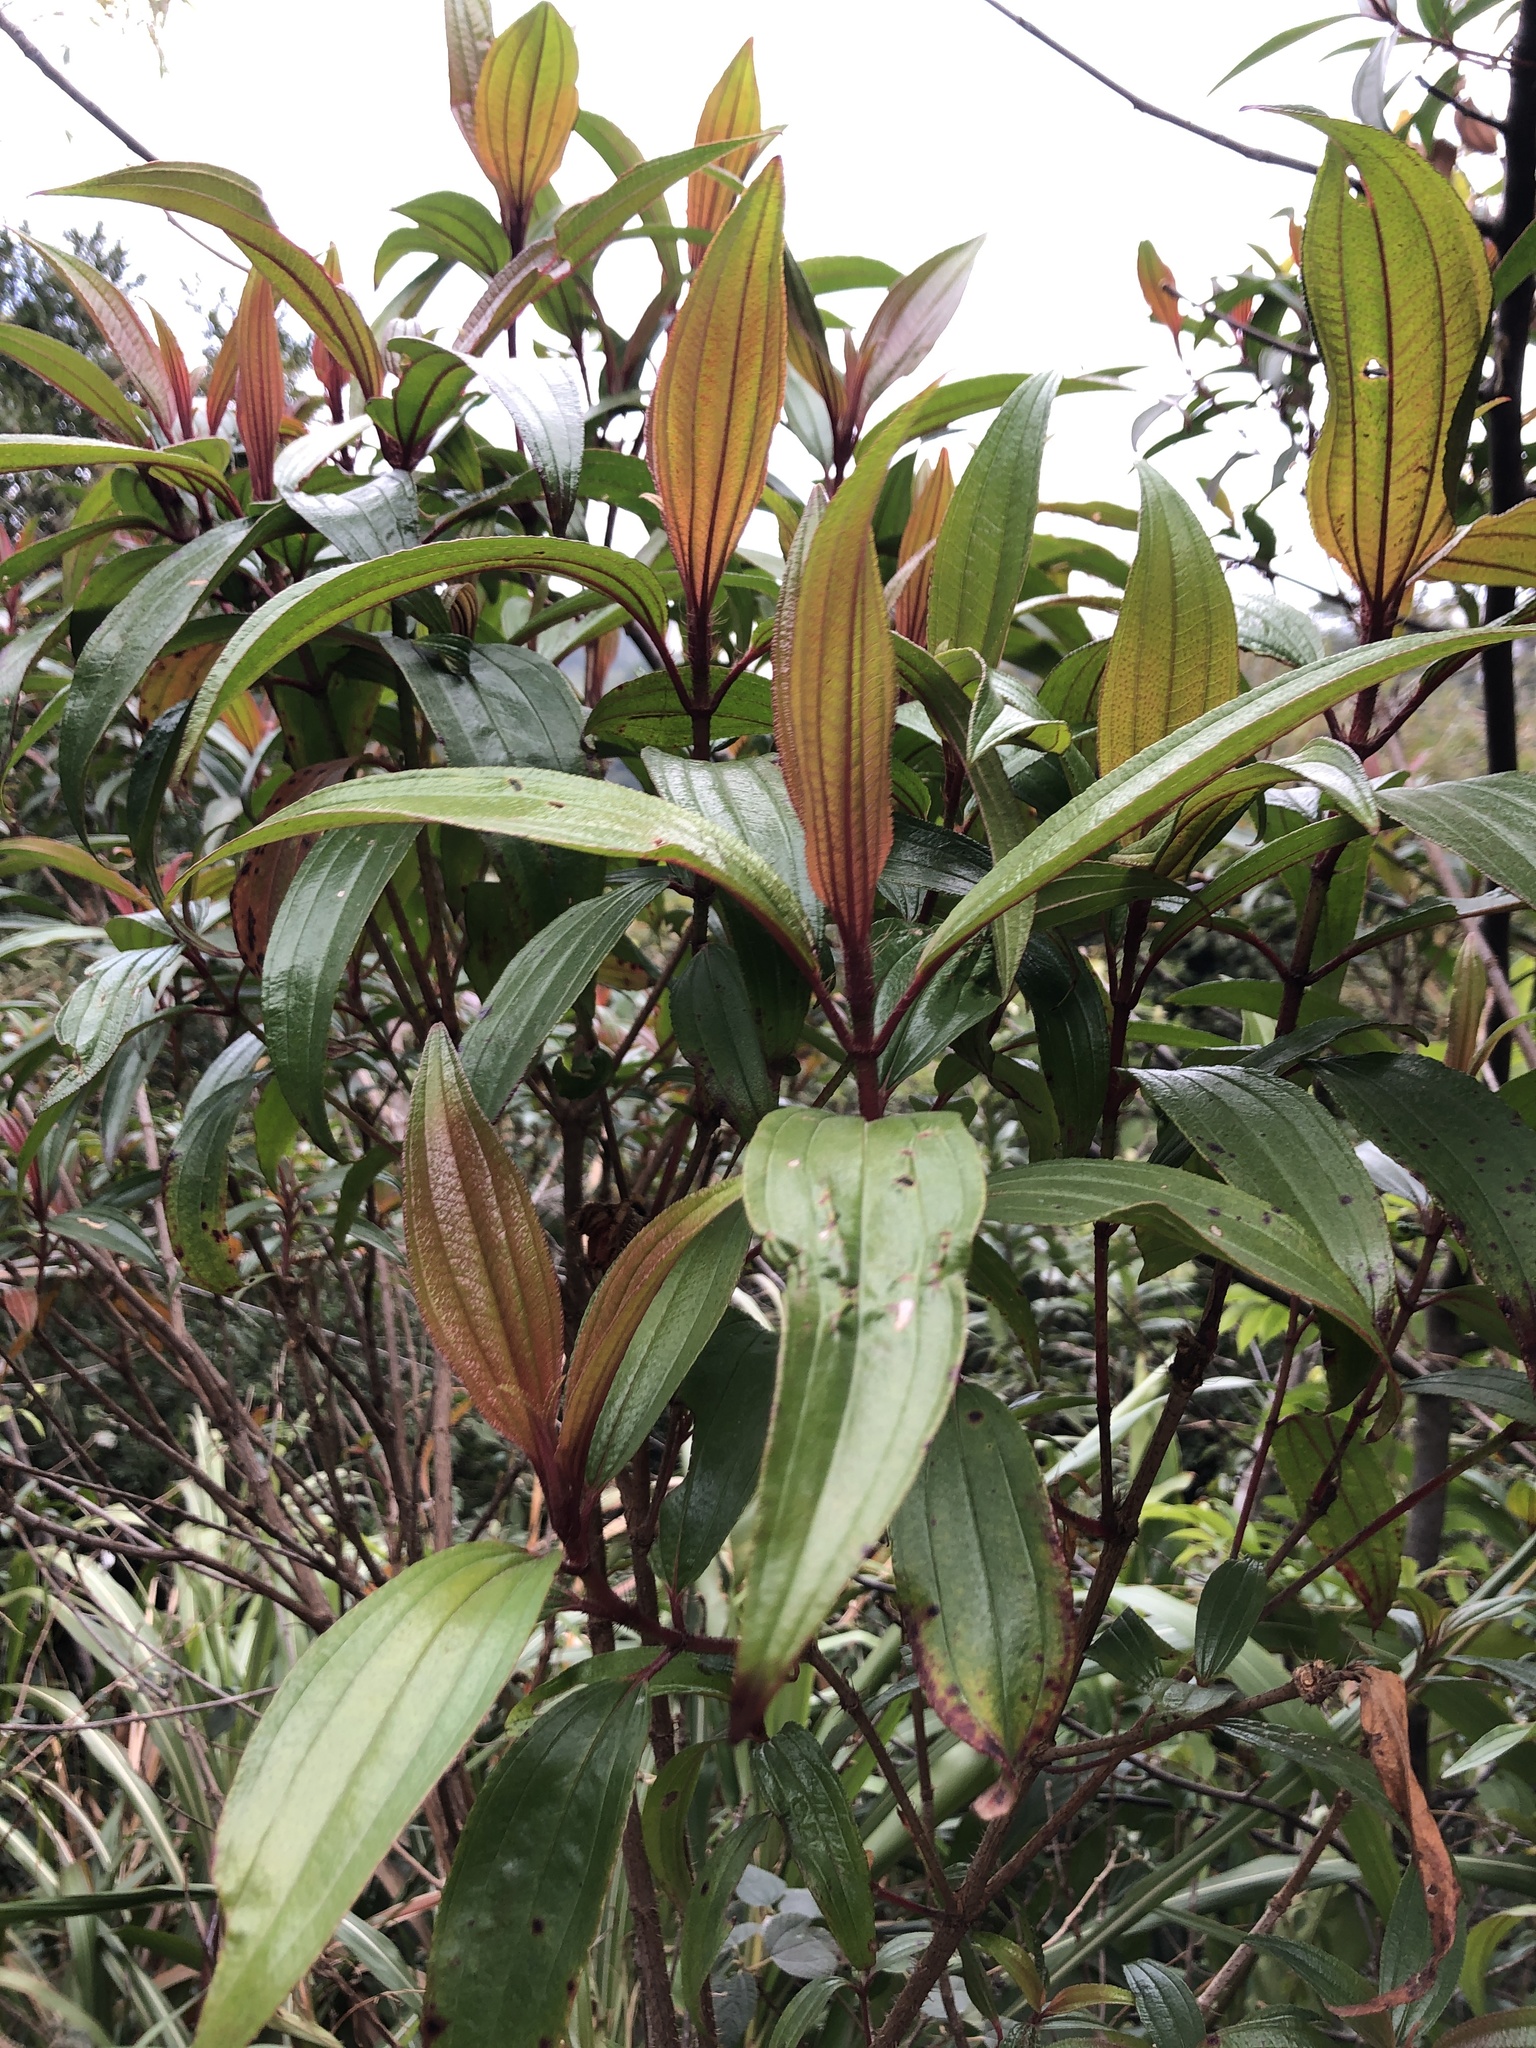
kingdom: Plantae
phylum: Tracheophyta
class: Magnoliopsida
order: Myrtales
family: Melastomataceae
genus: Melastoma
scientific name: Melastoma sanguineum
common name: Red melastome
